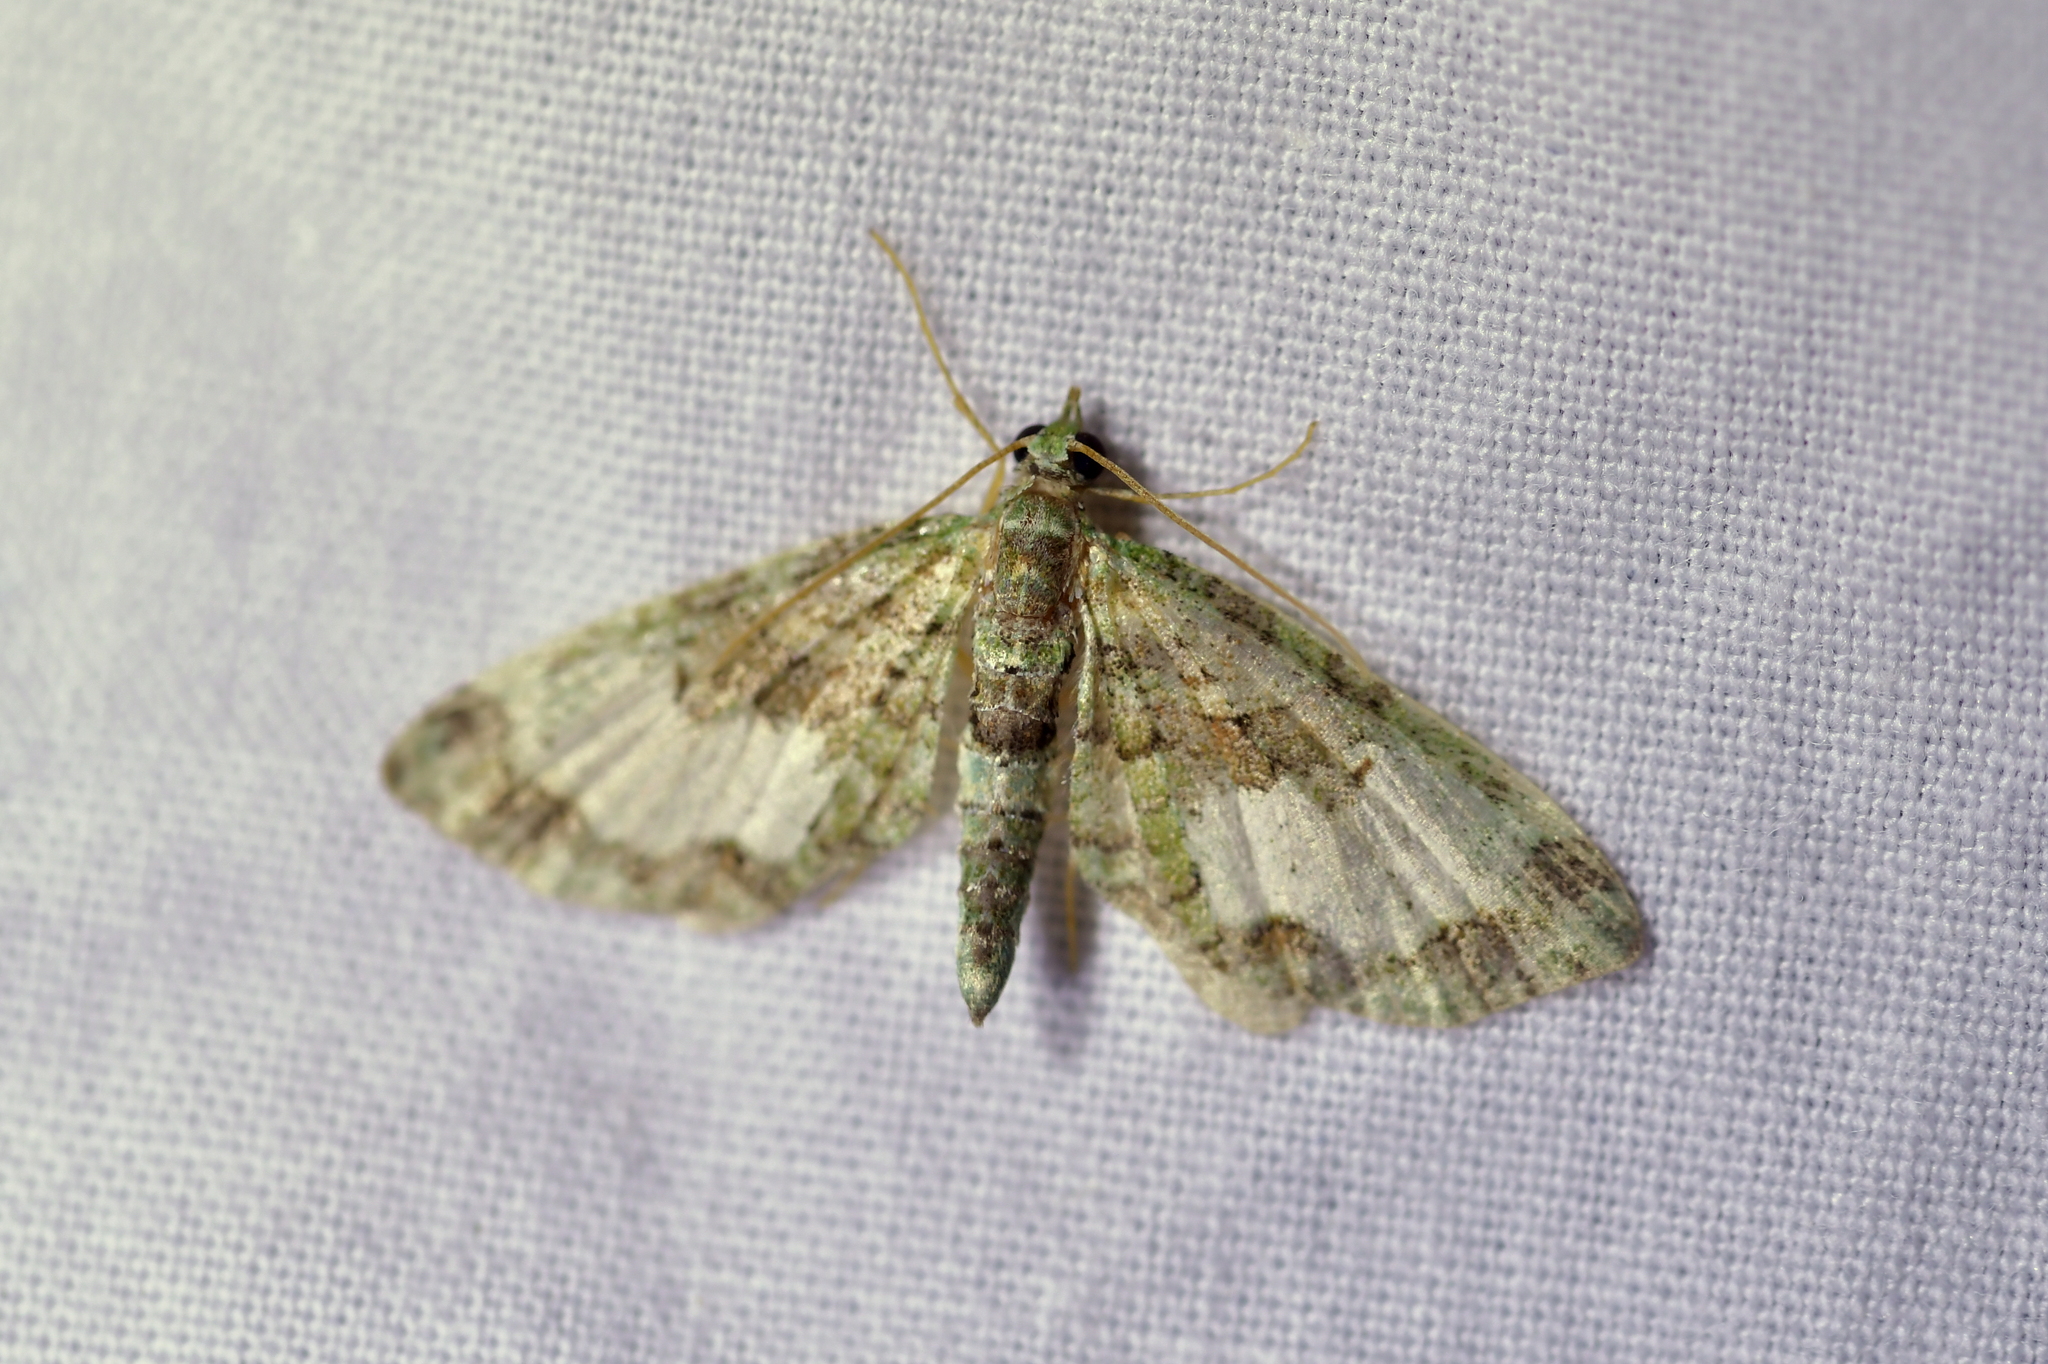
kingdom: Animalia
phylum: Arthropoda
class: Insecta
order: Lepidoptera
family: Geometridae
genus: Idaea
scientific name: Idaea mutanda
